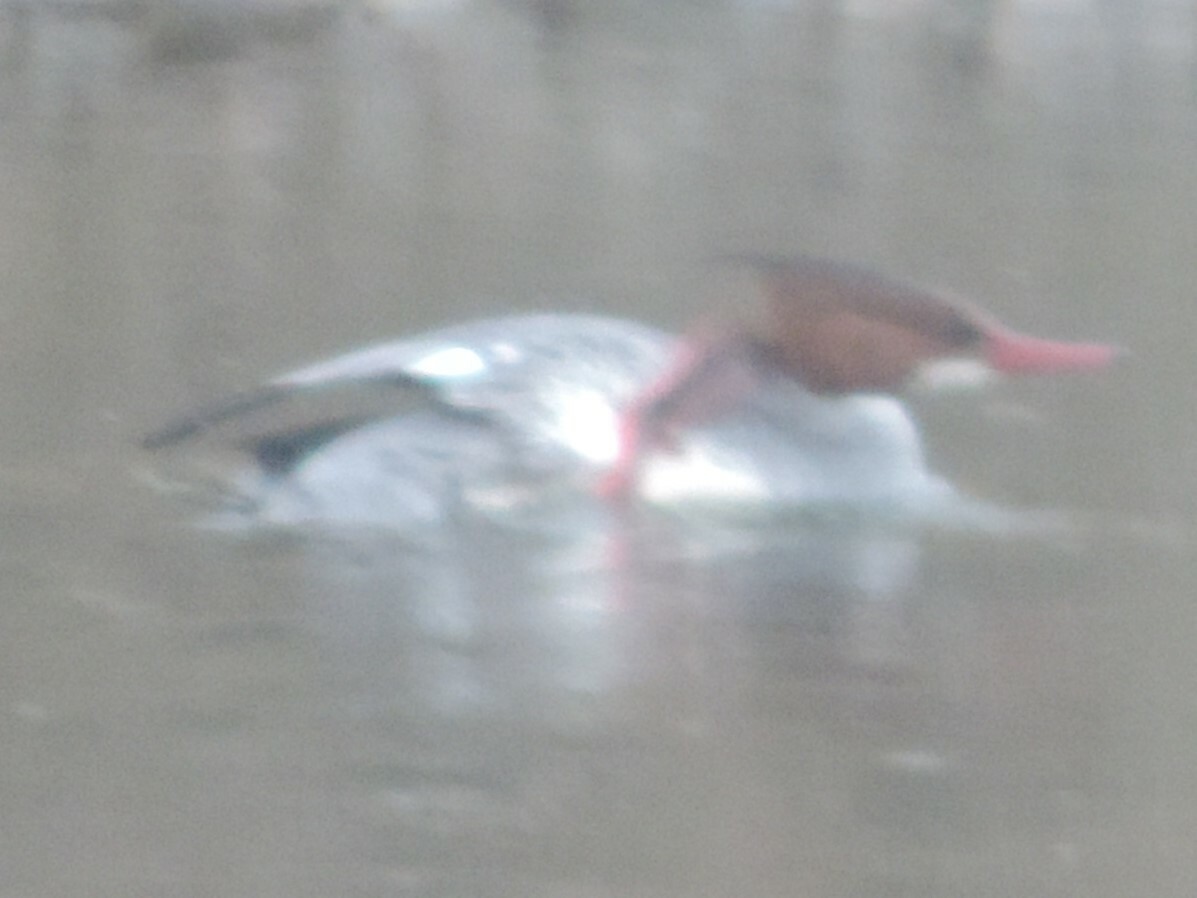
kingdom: Animalia
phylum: Chordata
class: Aves
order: Anseriformes
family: Anatidae
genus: Mergus
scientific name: Mergus merganser
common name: Common merganser
